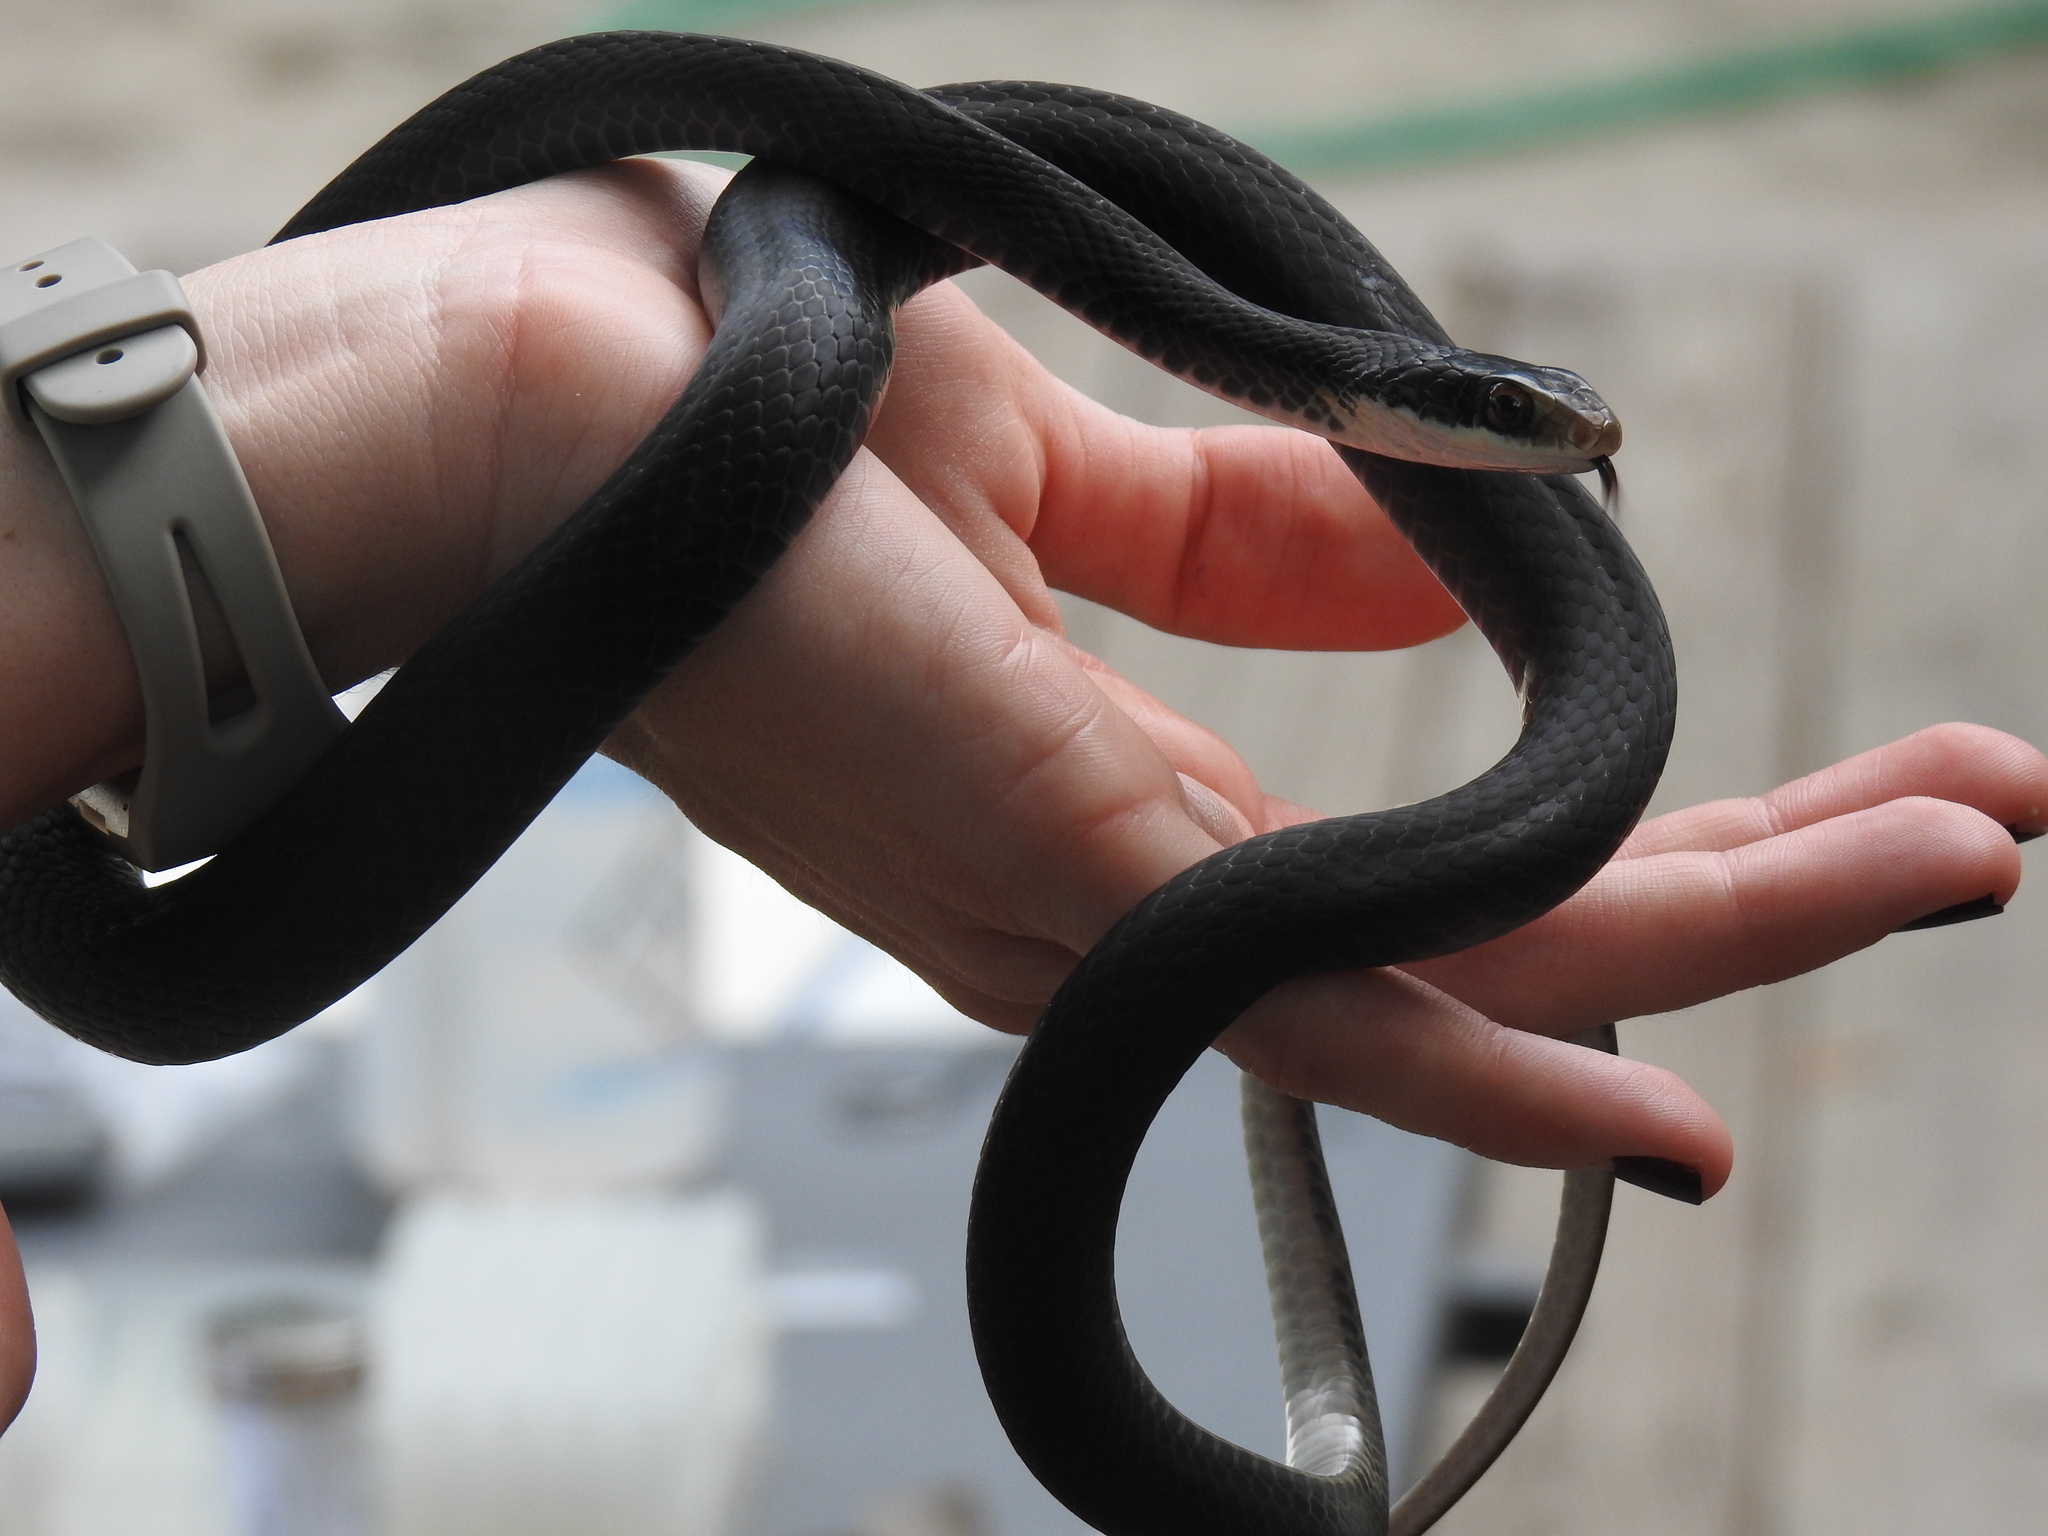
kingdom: Animalia
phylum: Chordata
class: Squamata
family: Colubridae
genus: Coluber
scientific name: Coluber constrictor
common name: Eastern racer
